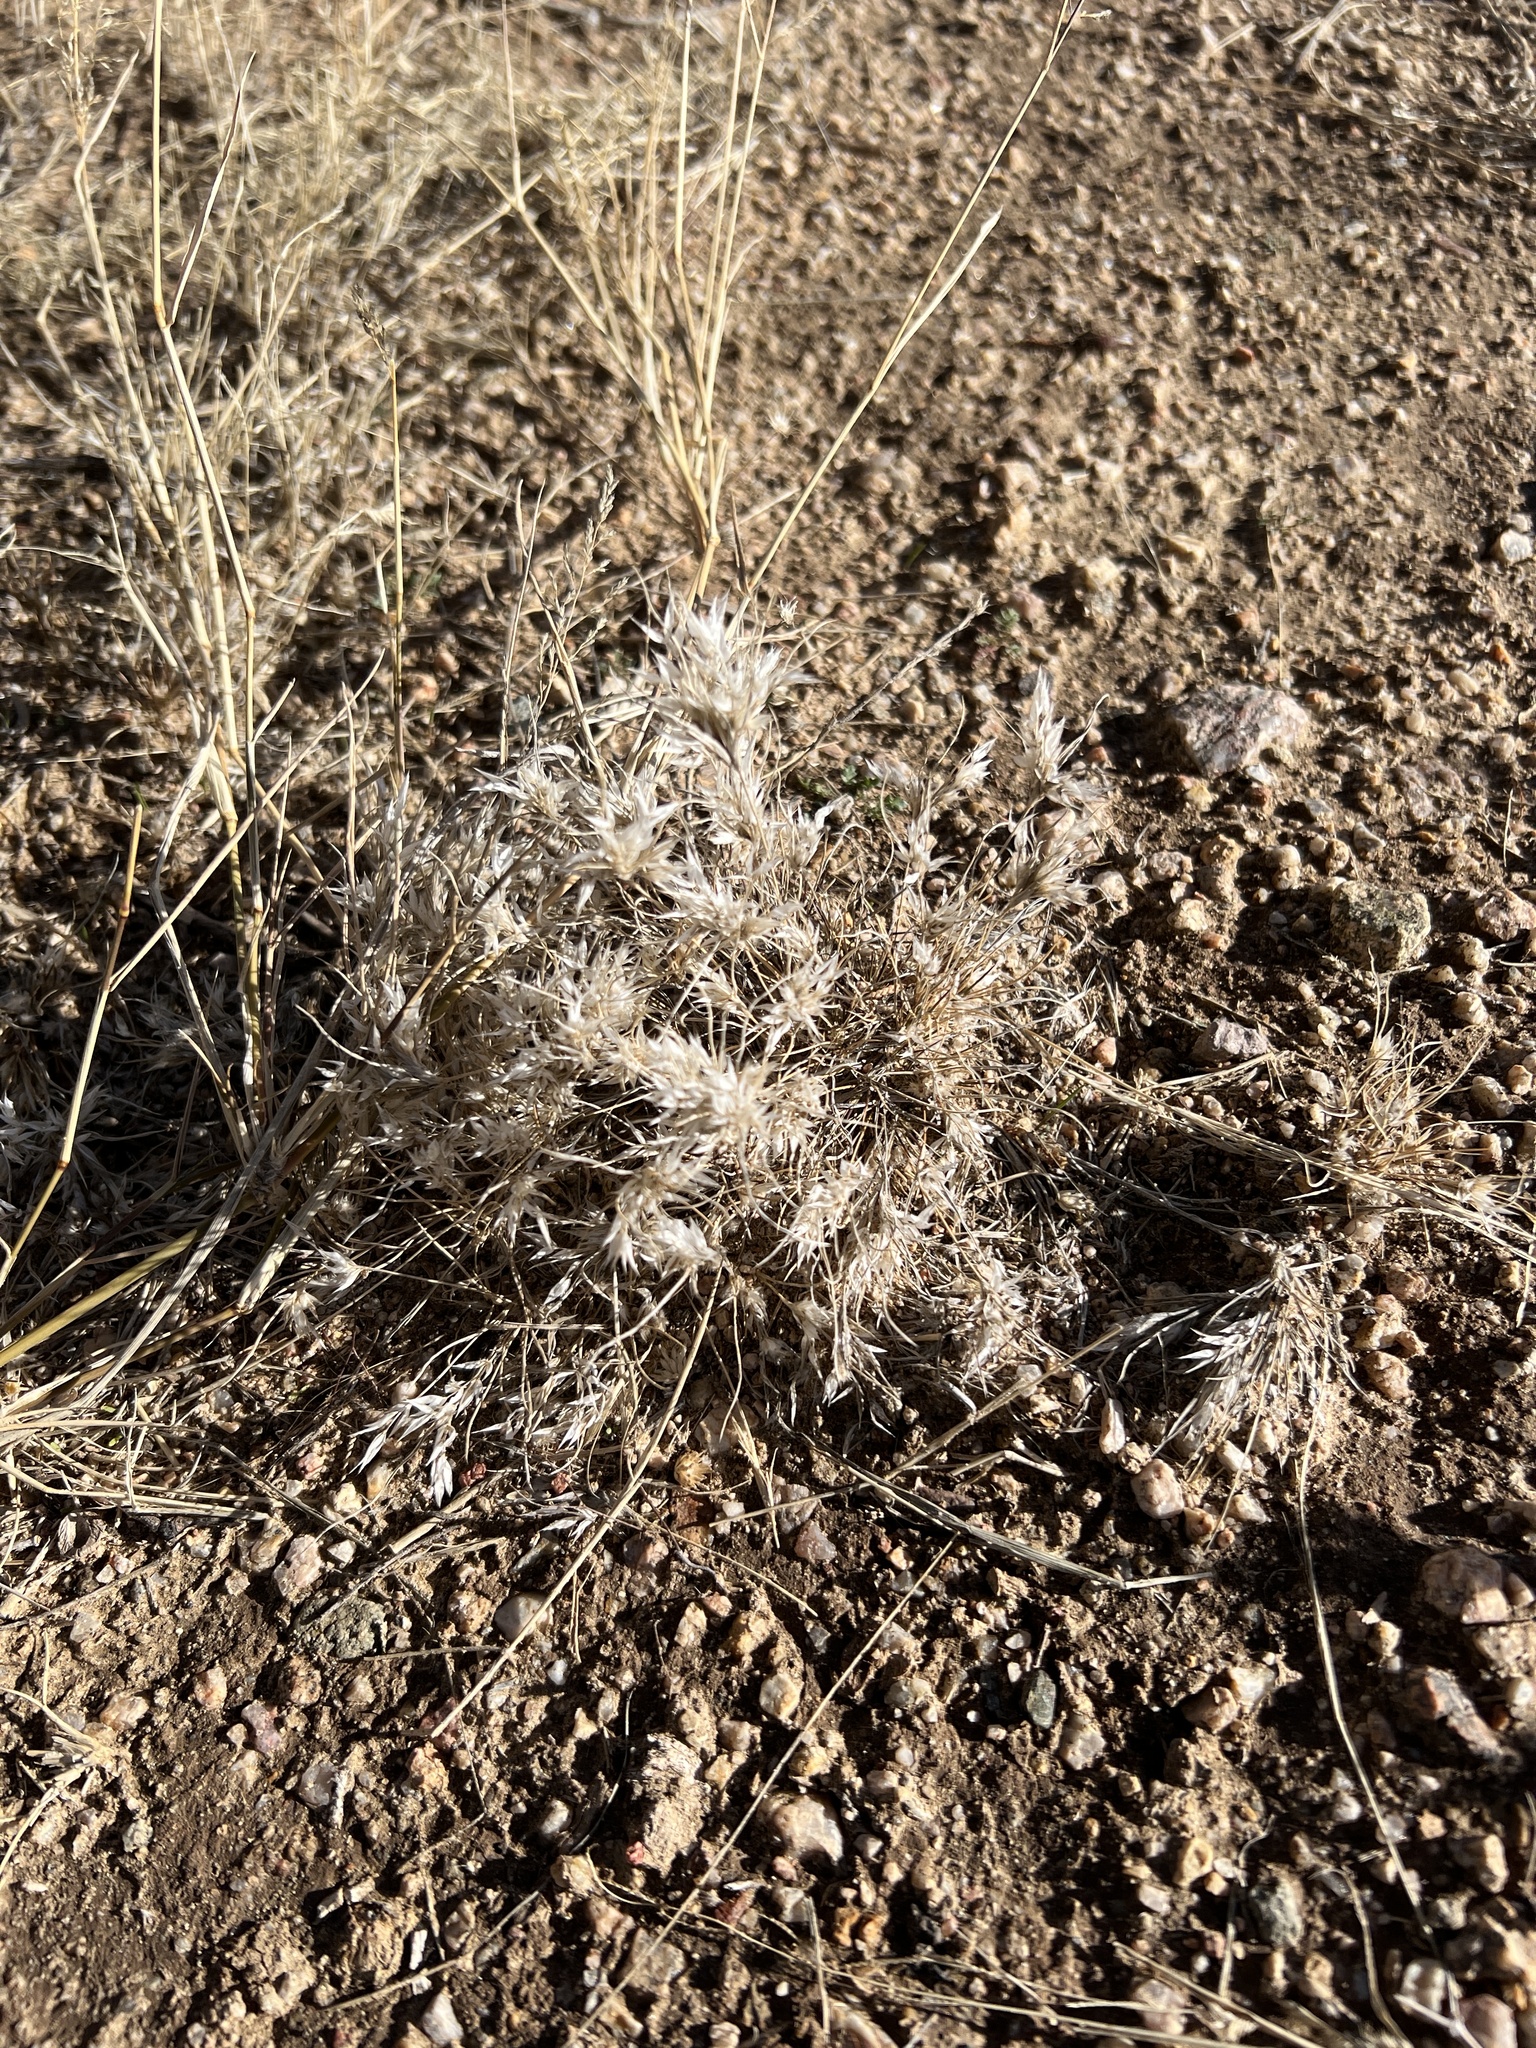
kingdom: Plantae
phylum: Tracheophyta
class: Liliopsida
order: Poales
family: Poaceae
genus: Dasyochloa
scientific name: Dasyochloa pulchella
